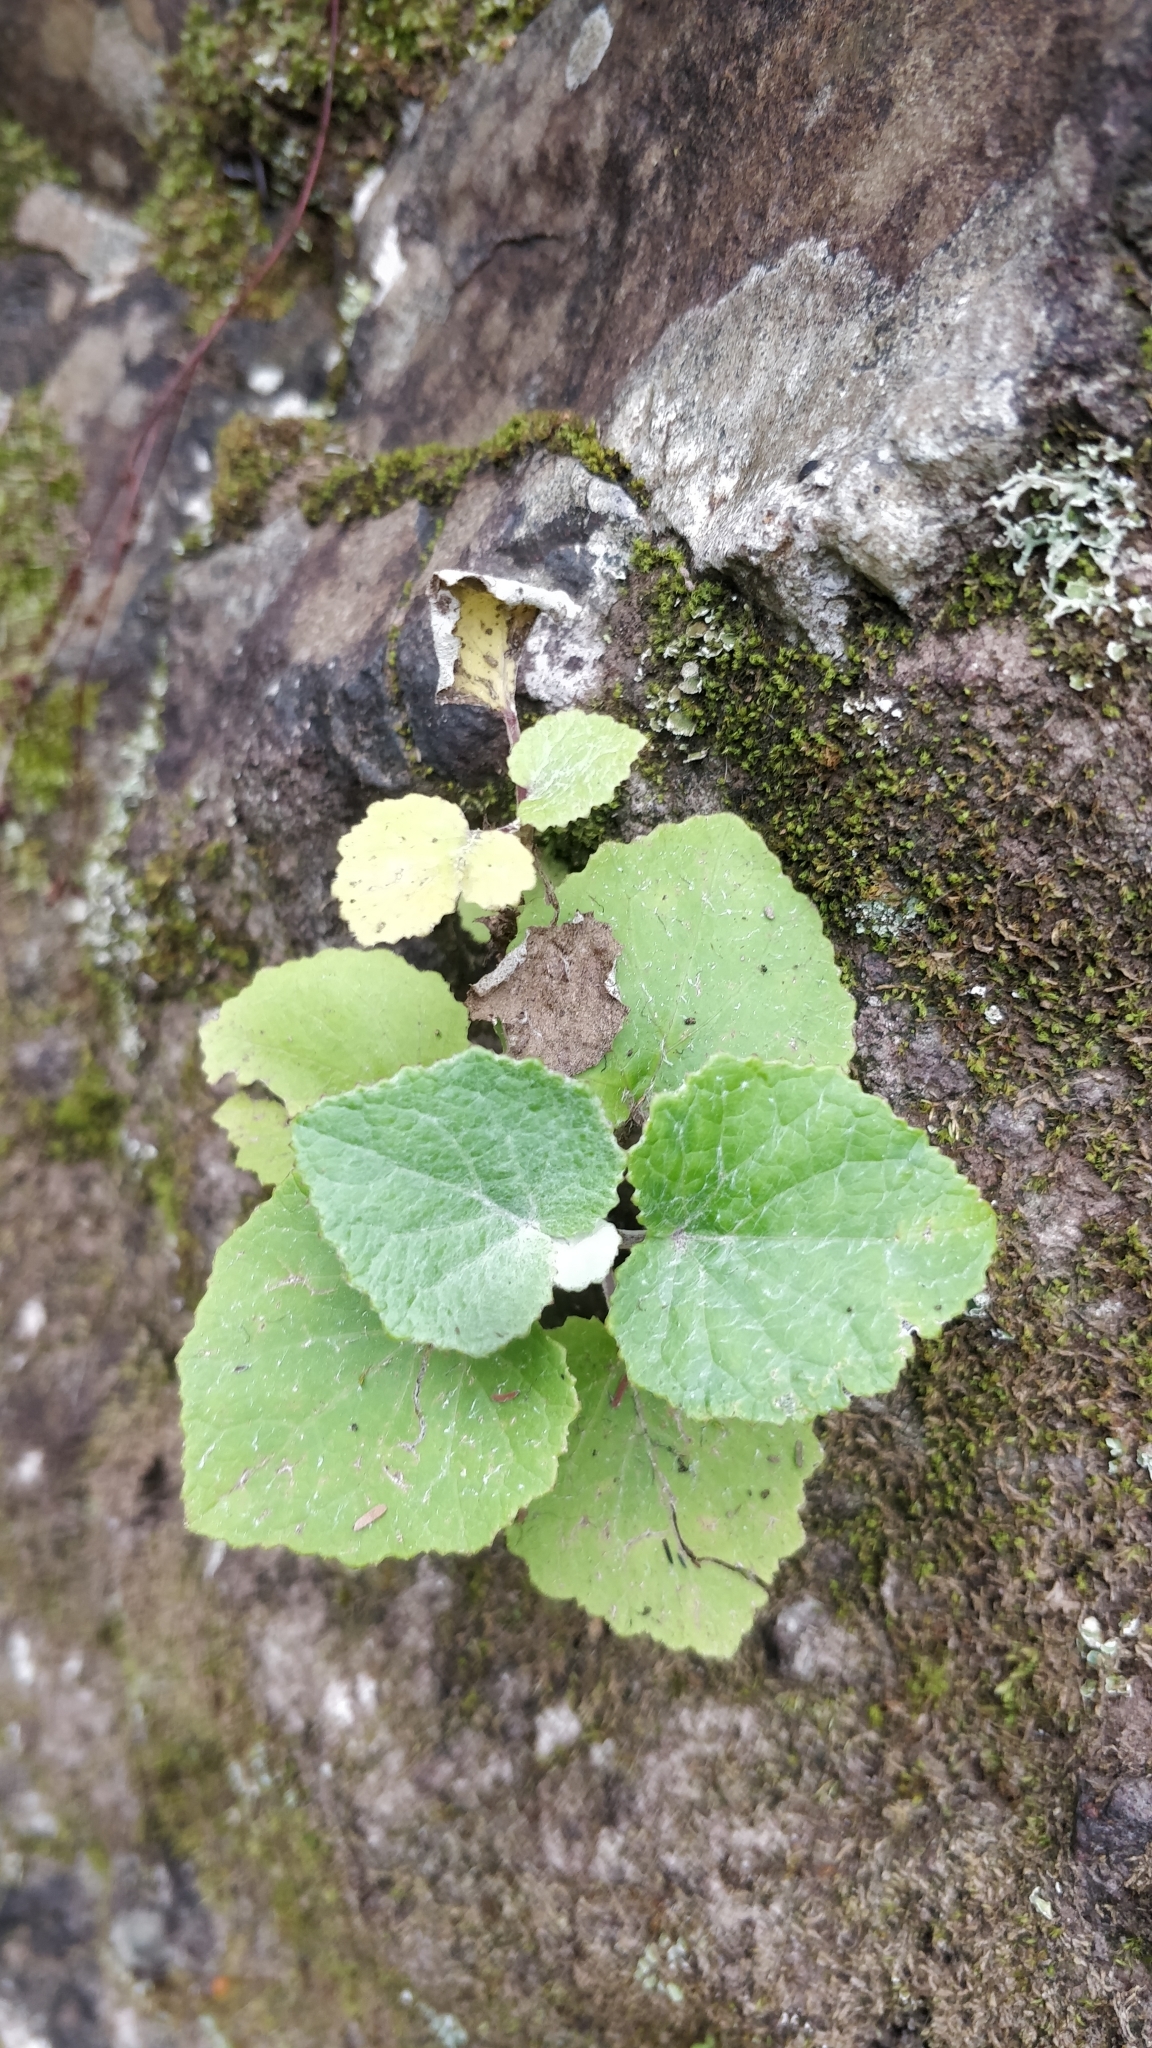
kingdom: Plantae
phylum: Tracheophyta
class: Magnoliopsida
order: Asterales
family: Asteraceae
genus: Pericallis
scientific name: Pericallis aurita
